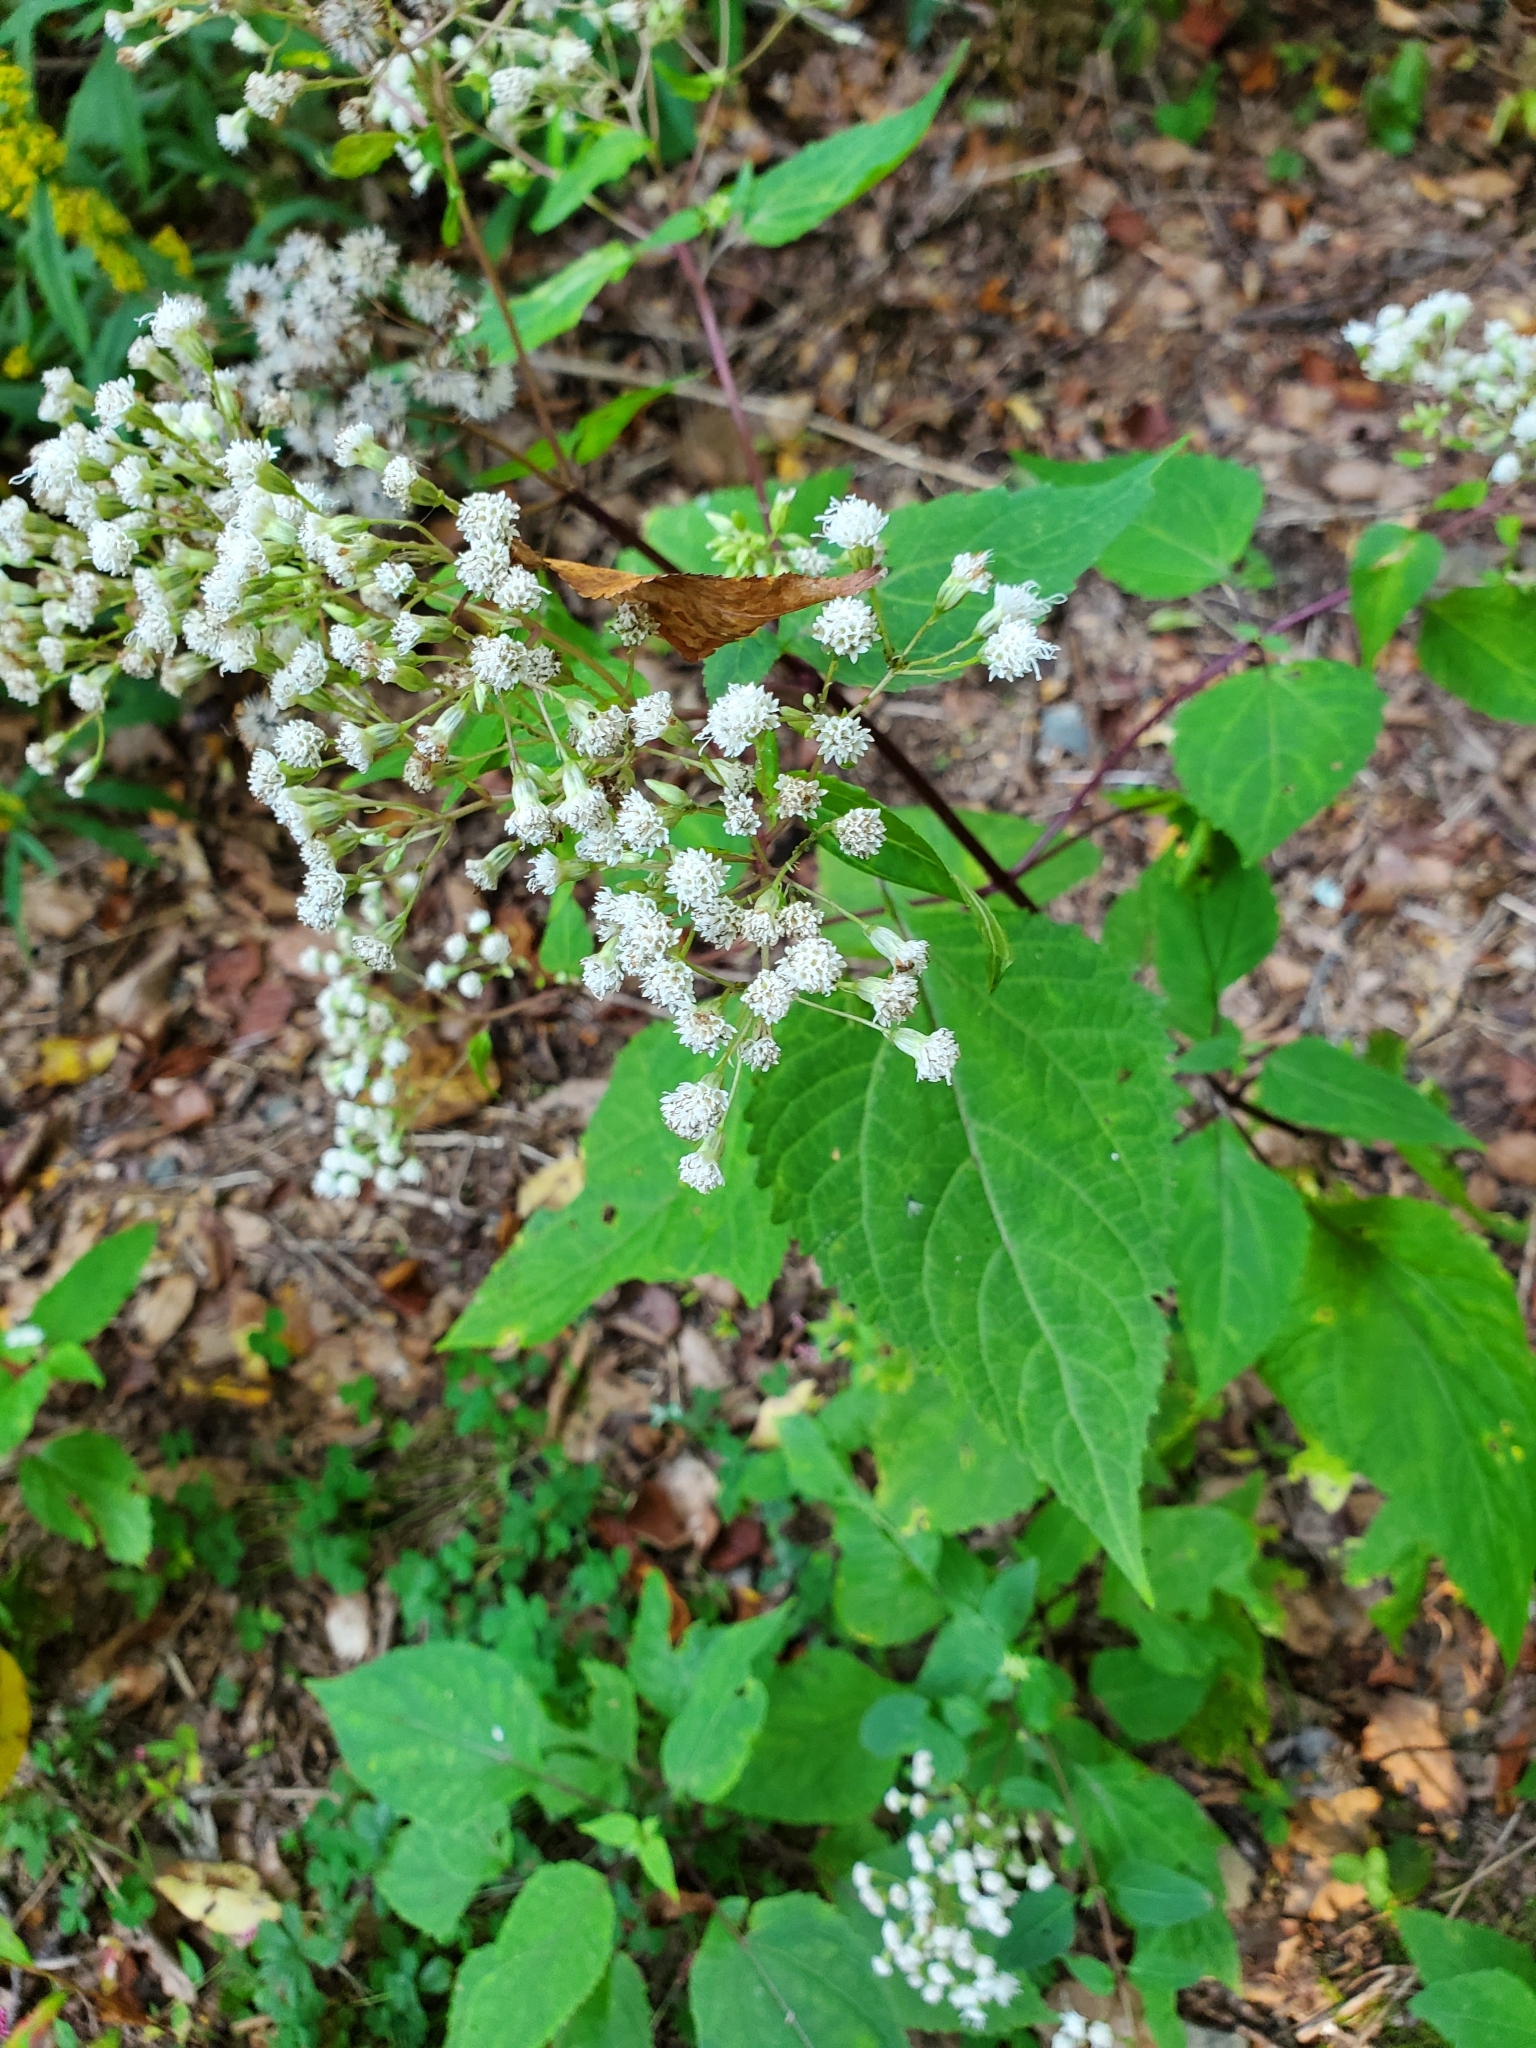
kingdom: Plantae
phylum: Tracheophyta
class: Magnoliopsida
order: Asterales
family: Asteraceae
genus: Ageratina
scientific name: Ageratina altissima
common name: White snakeroot
